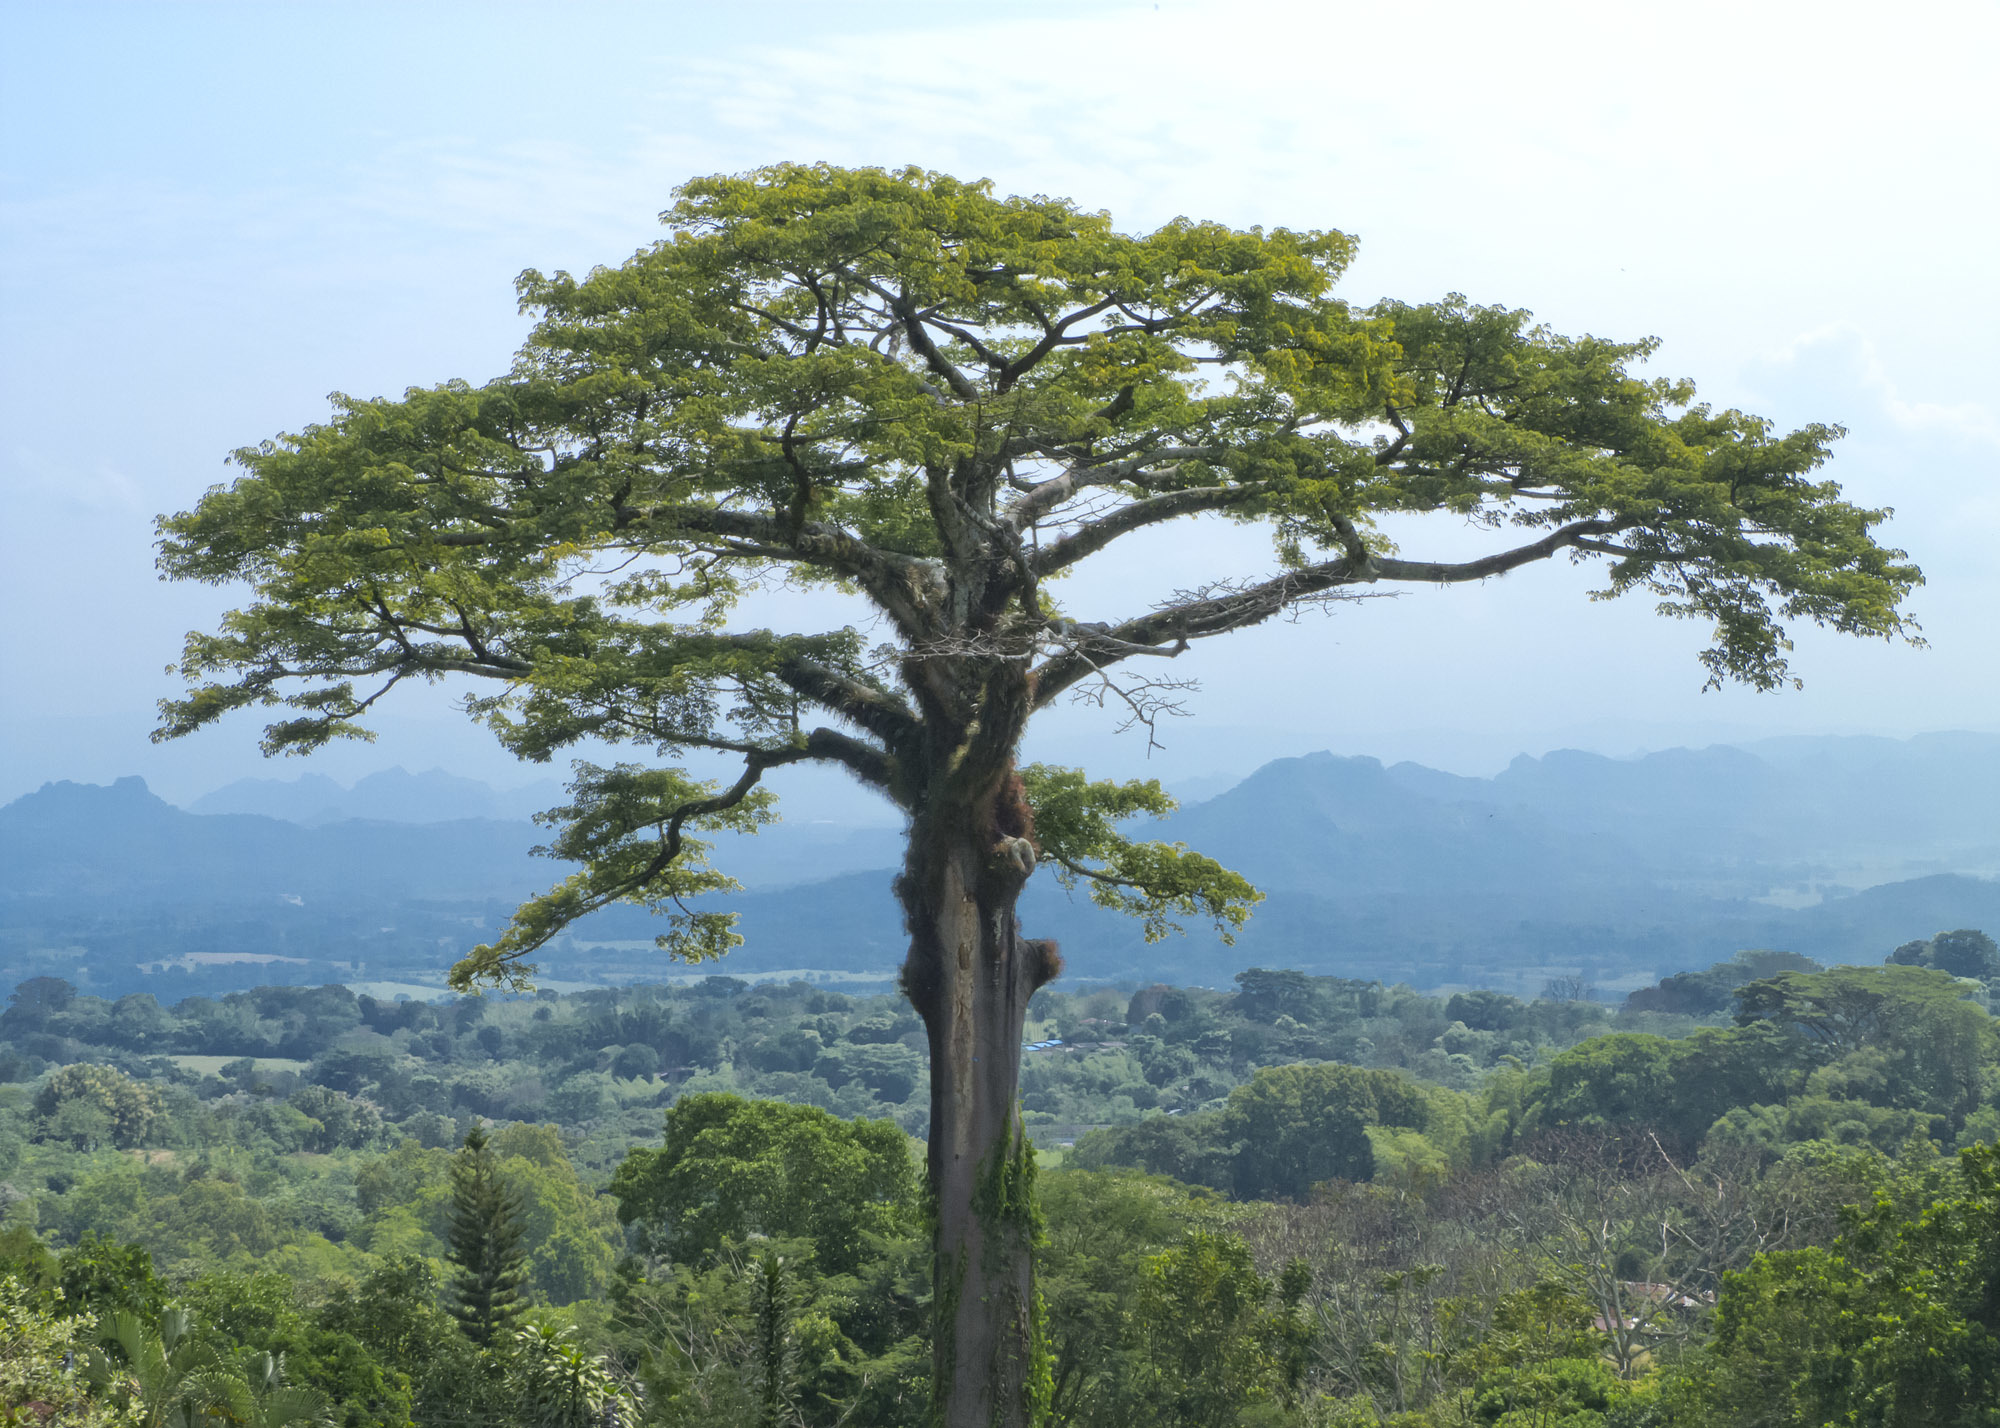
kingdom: Plantae
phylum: Tracheophyta
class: Magnoliopsida
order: Malvales
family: Malvaceae
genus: Ceiba
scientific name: Ceiba pentandra
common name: Kapok
